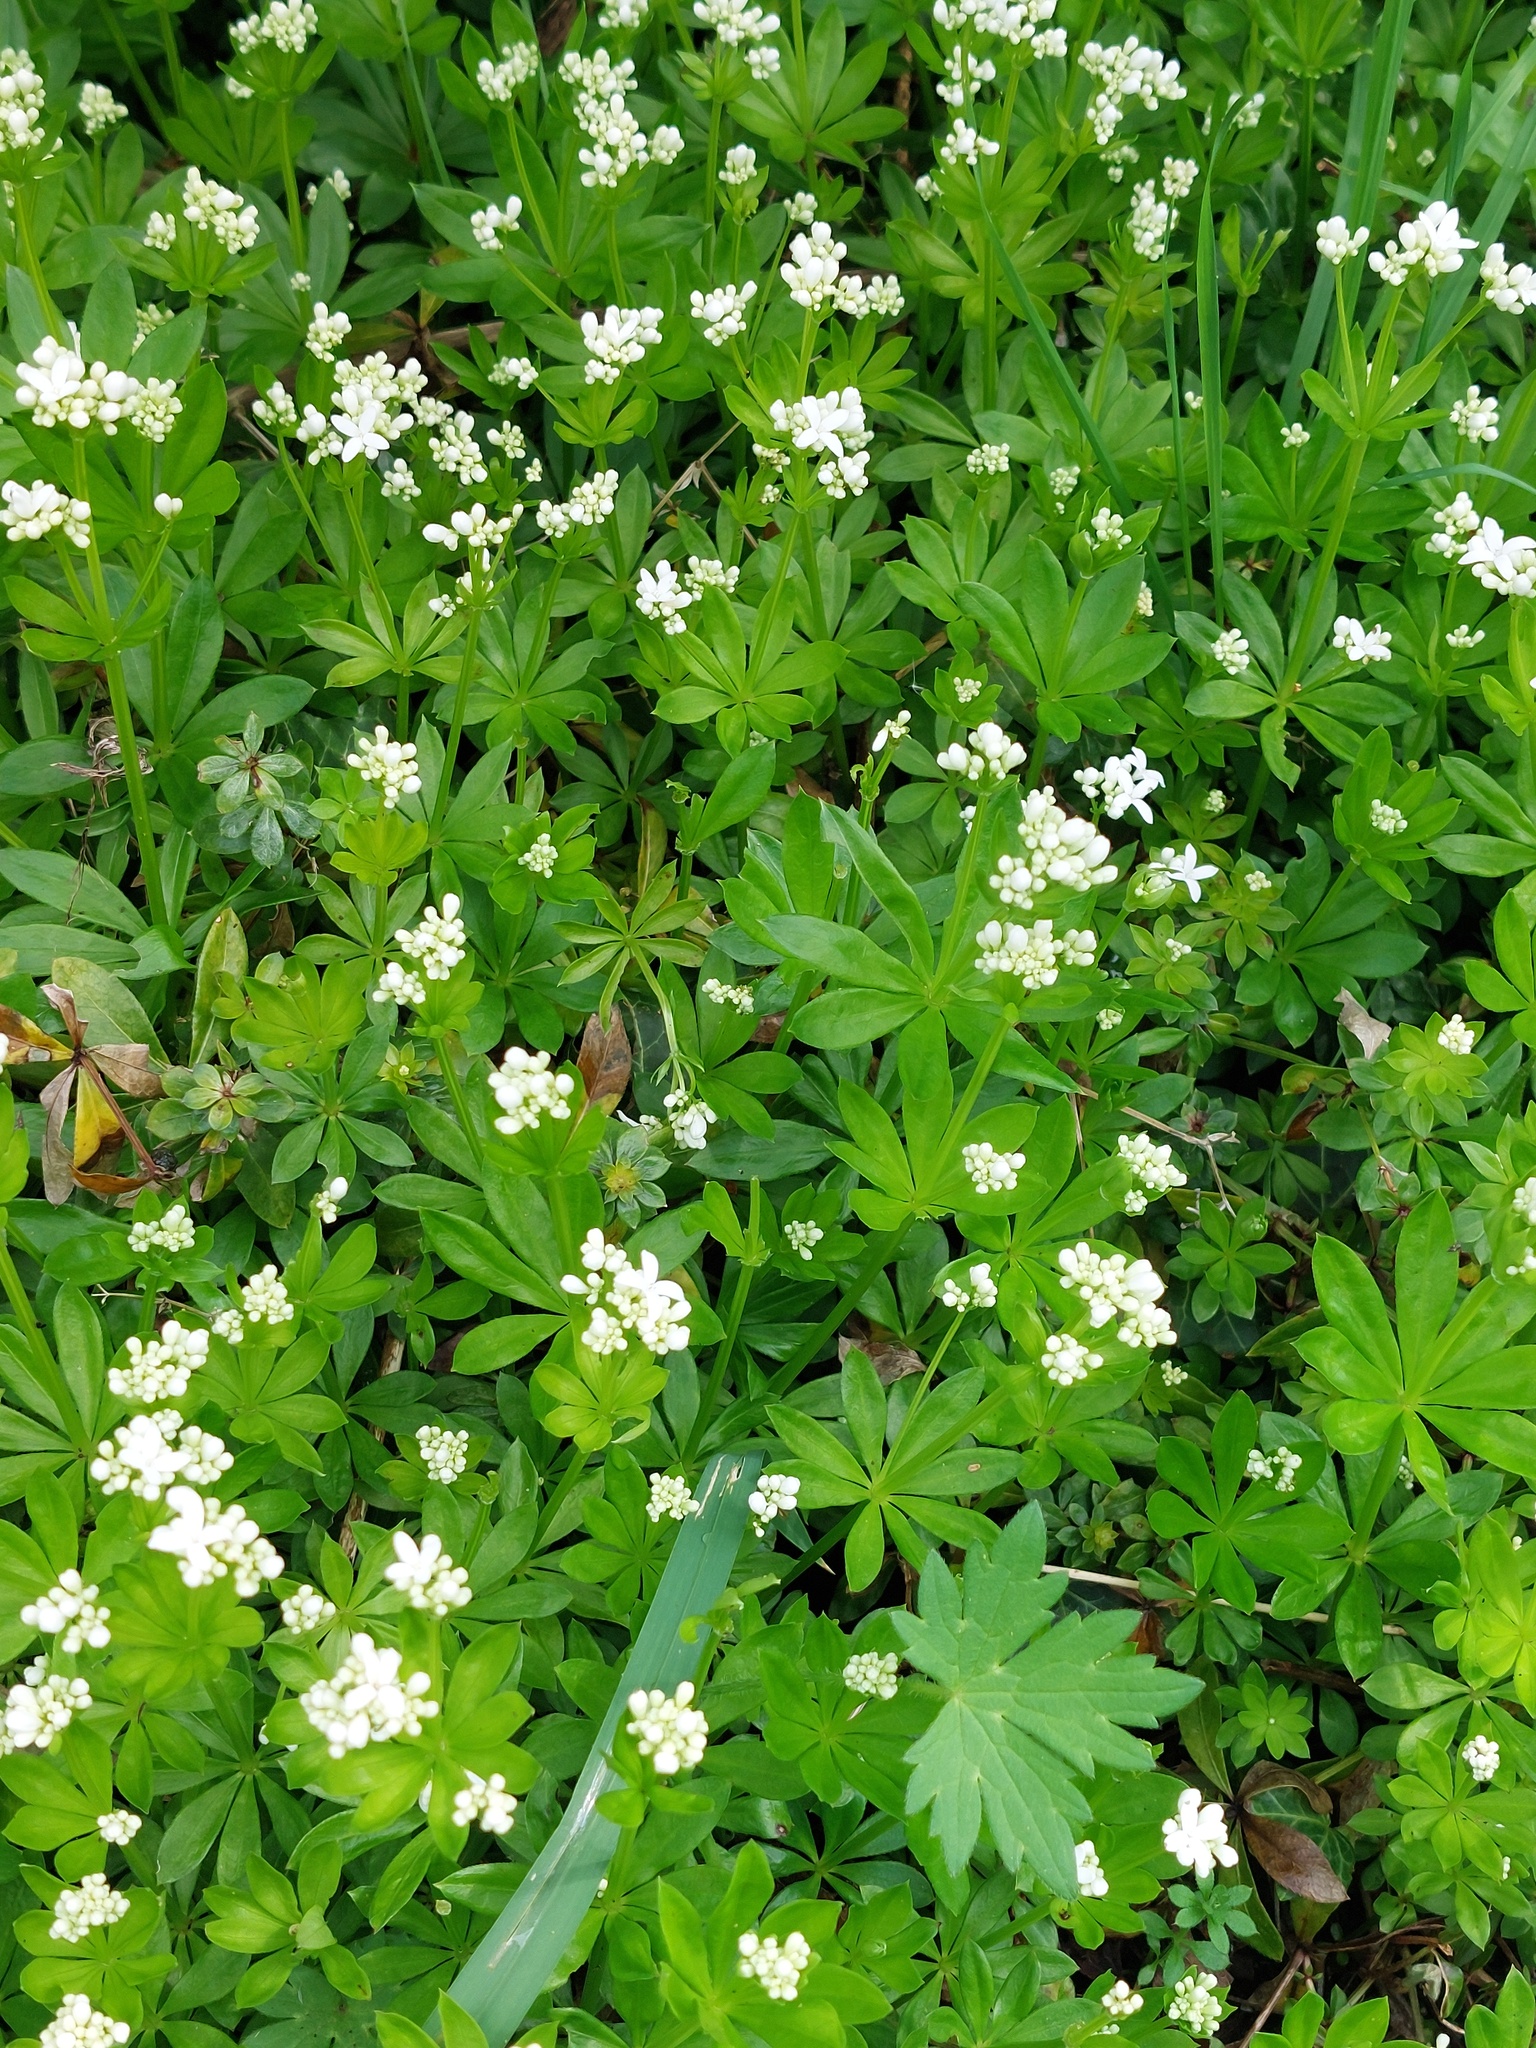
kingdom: Plantae
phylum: Tracheophyta
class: Magnoliopsida
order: Gentianales
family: Rubiaceae
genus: Galium
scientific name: Galium odoratum
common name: Sweet woodruff
